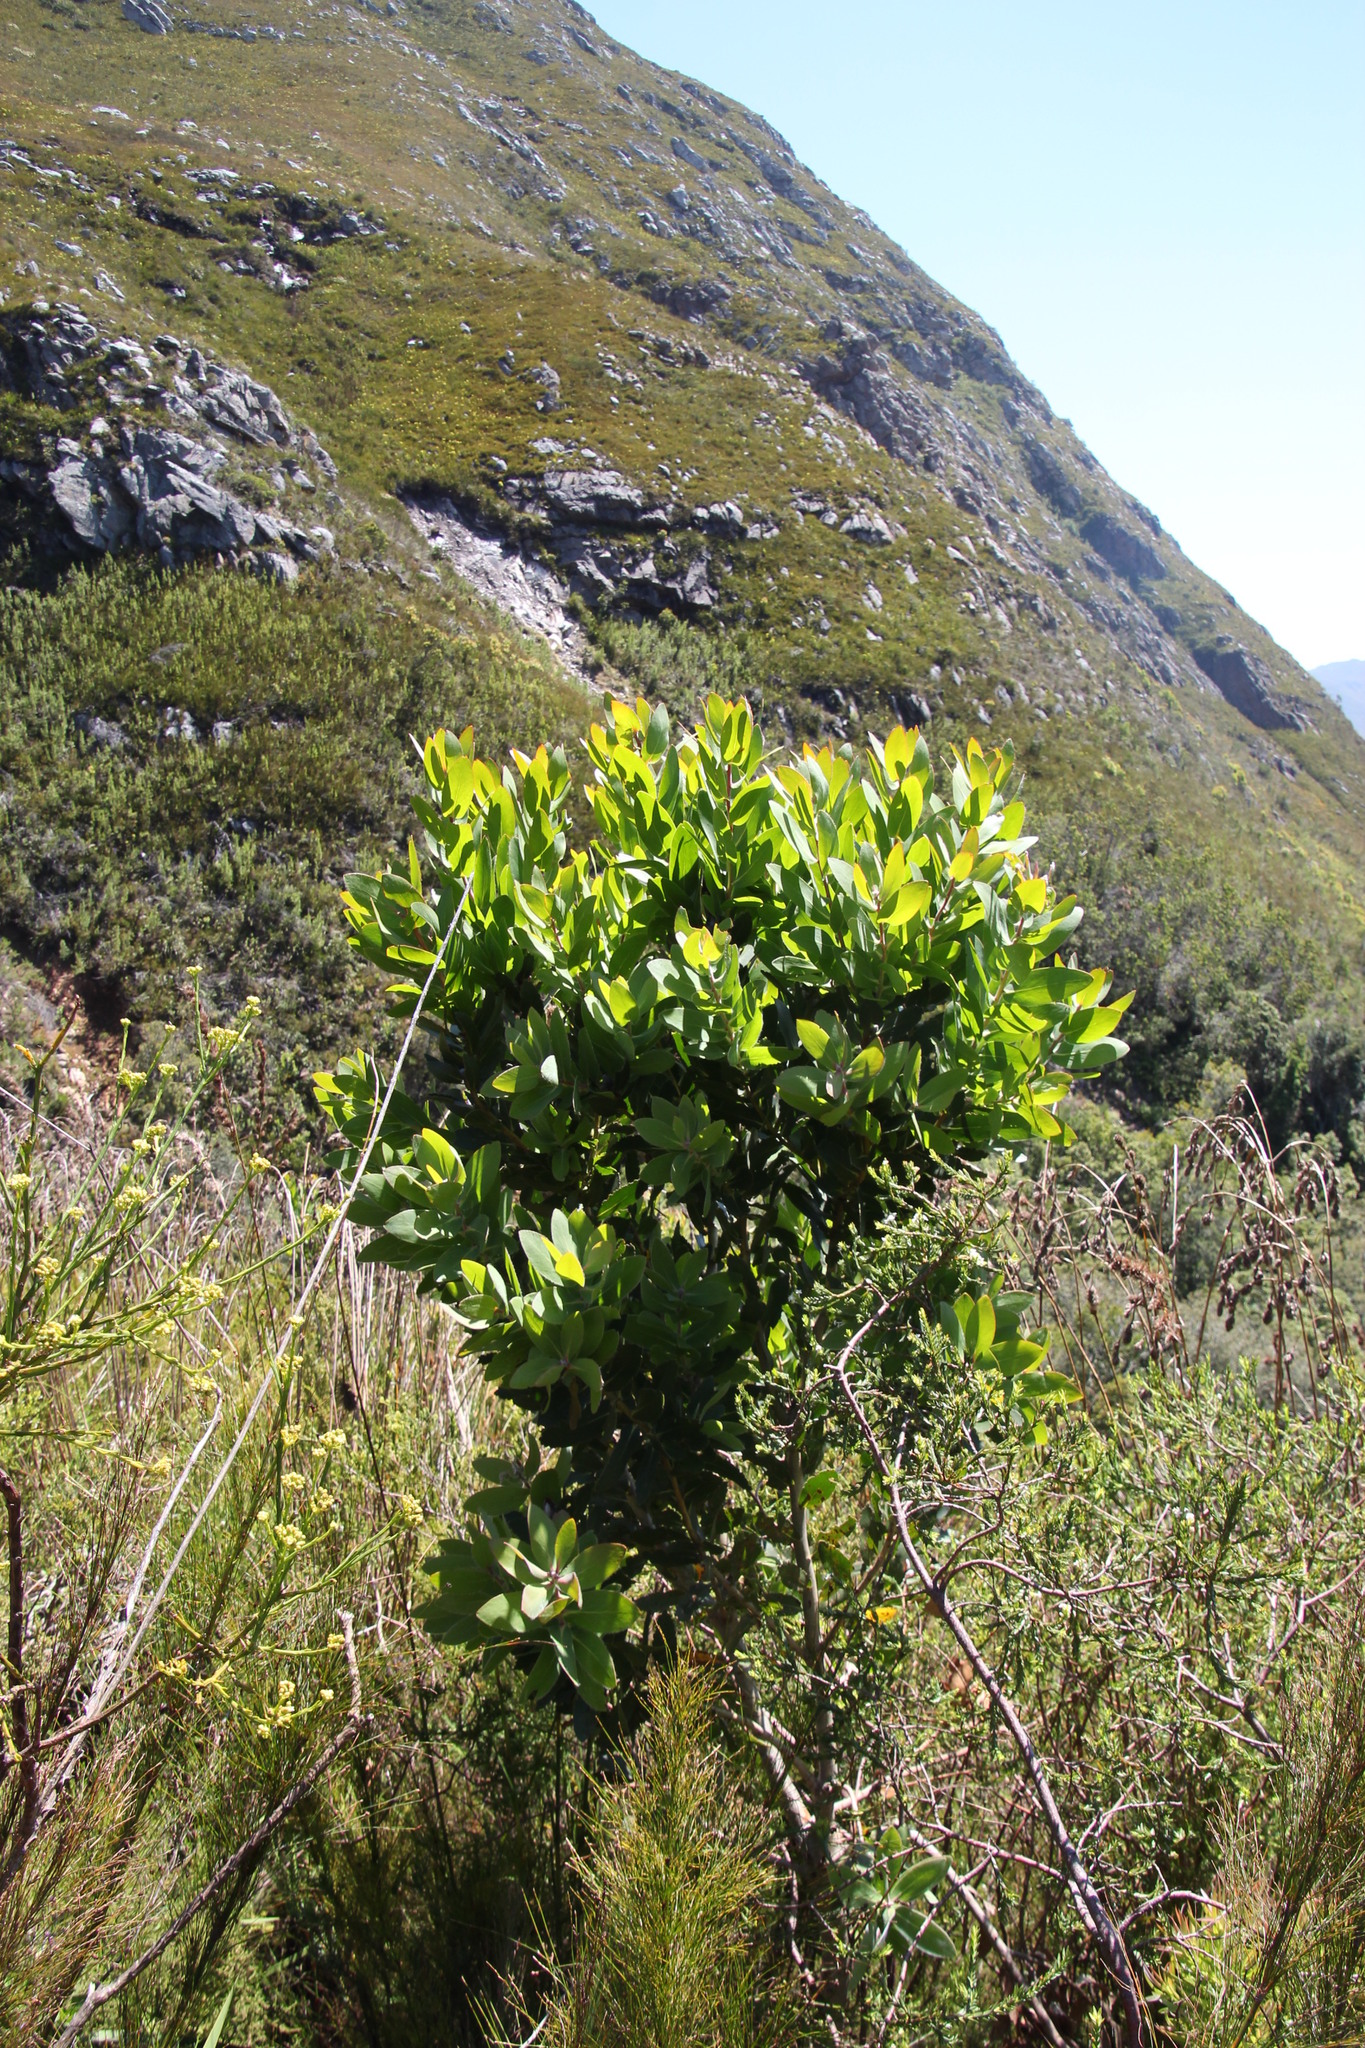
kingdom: Plantae
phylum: Tracheophyta
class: Magnoliopsida
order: Proteales
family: Proteaceae
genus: Protea
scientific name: Protea mundii
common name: Forest sugarbush
